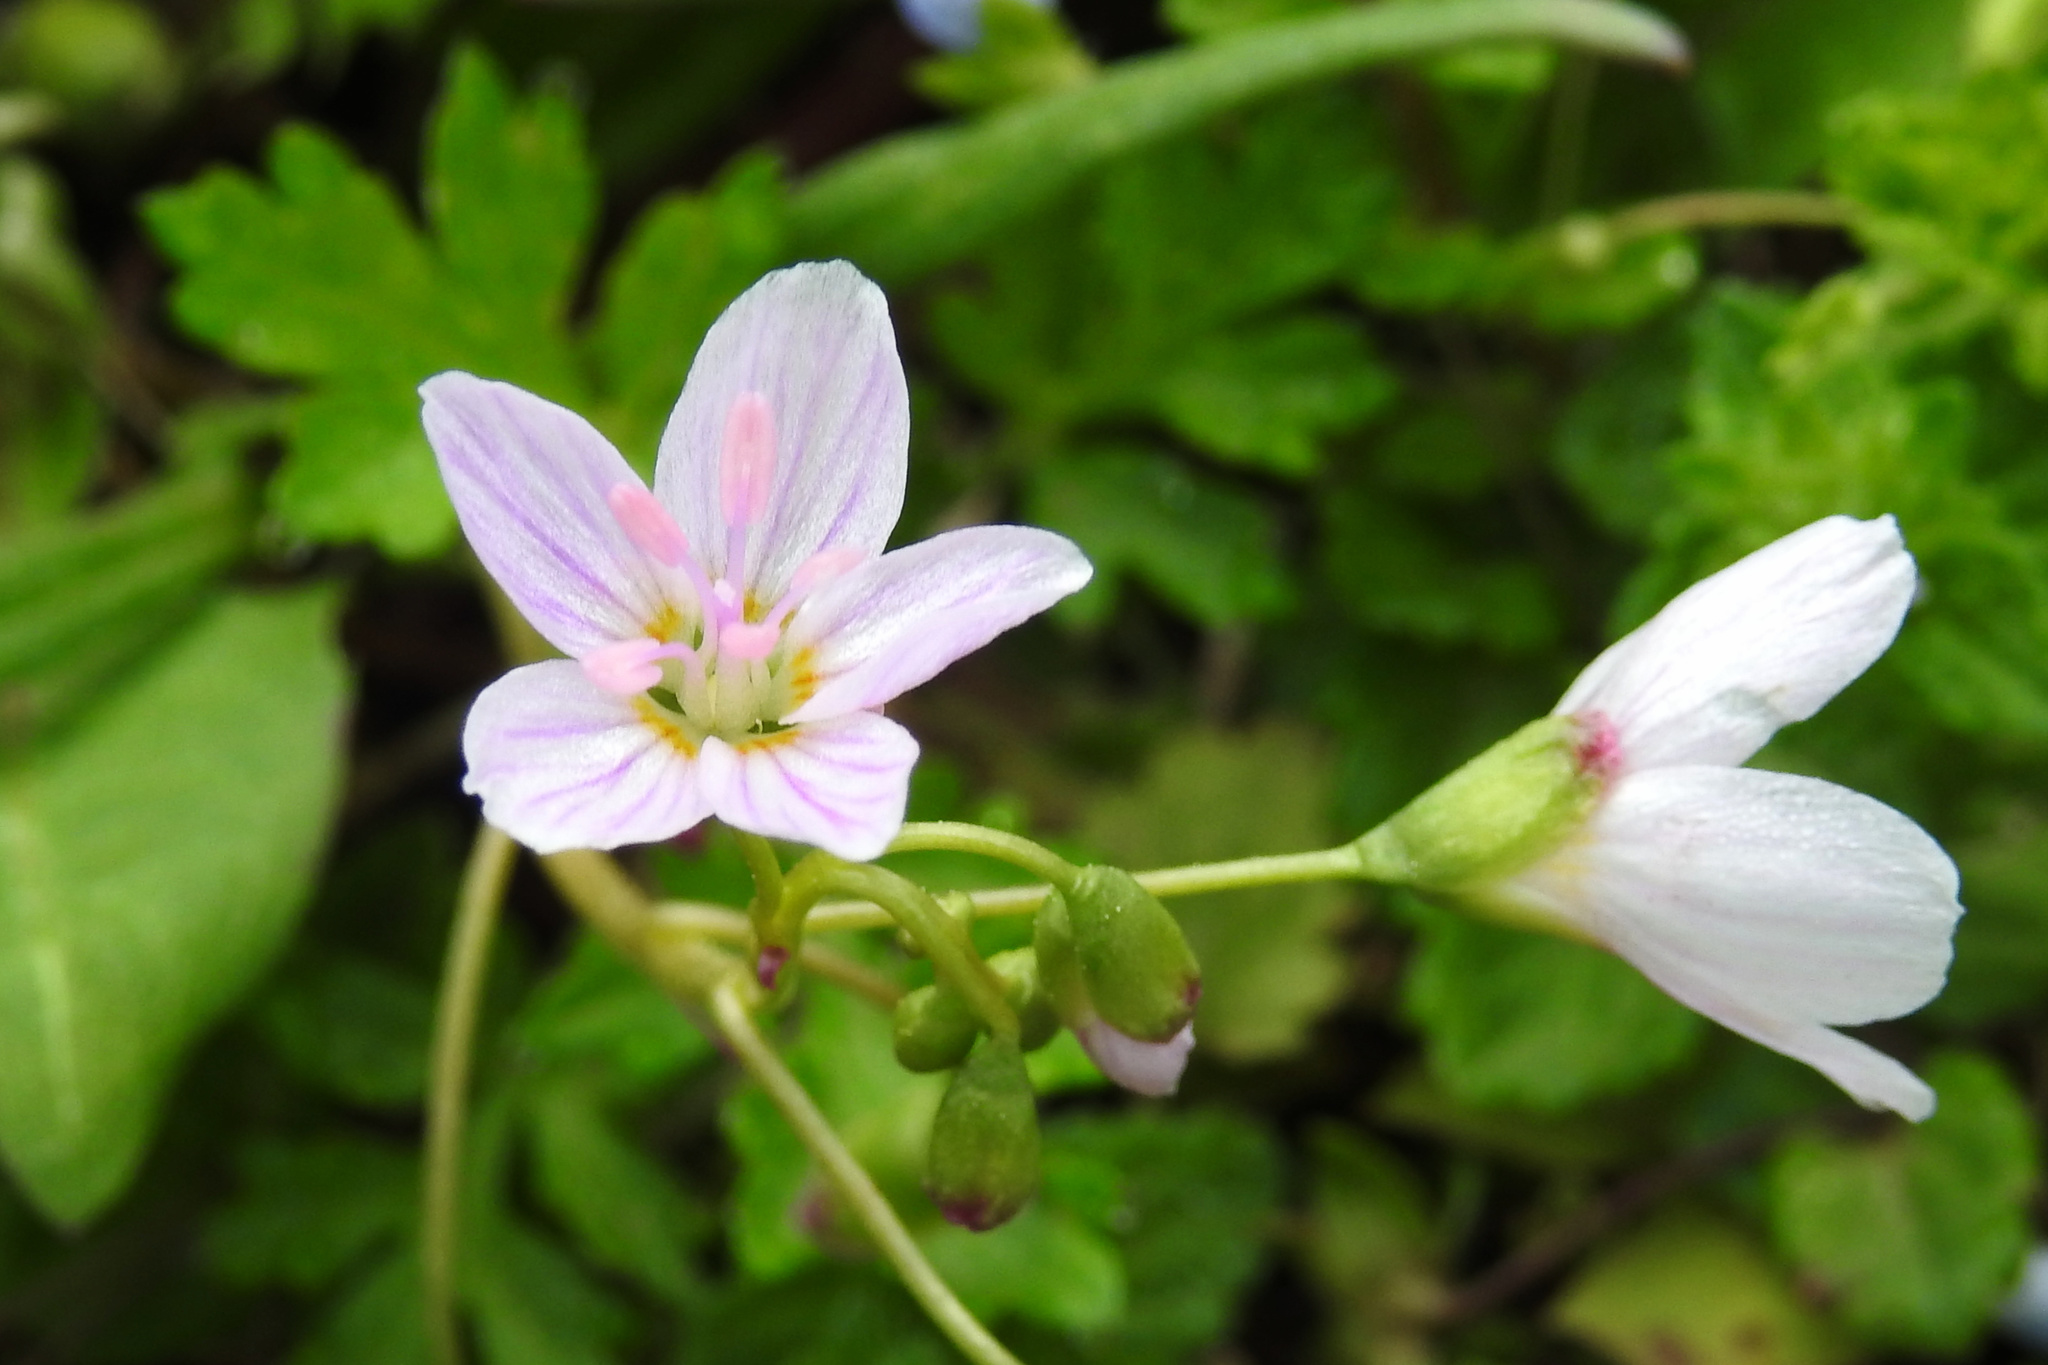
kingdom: Plantae
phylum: Tracheophyta
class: Magnoliopsida
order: Caryophyllales
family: Montiaceae
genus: Claytonia
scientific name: Claytonia virginica
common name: Virginia springbeauty
